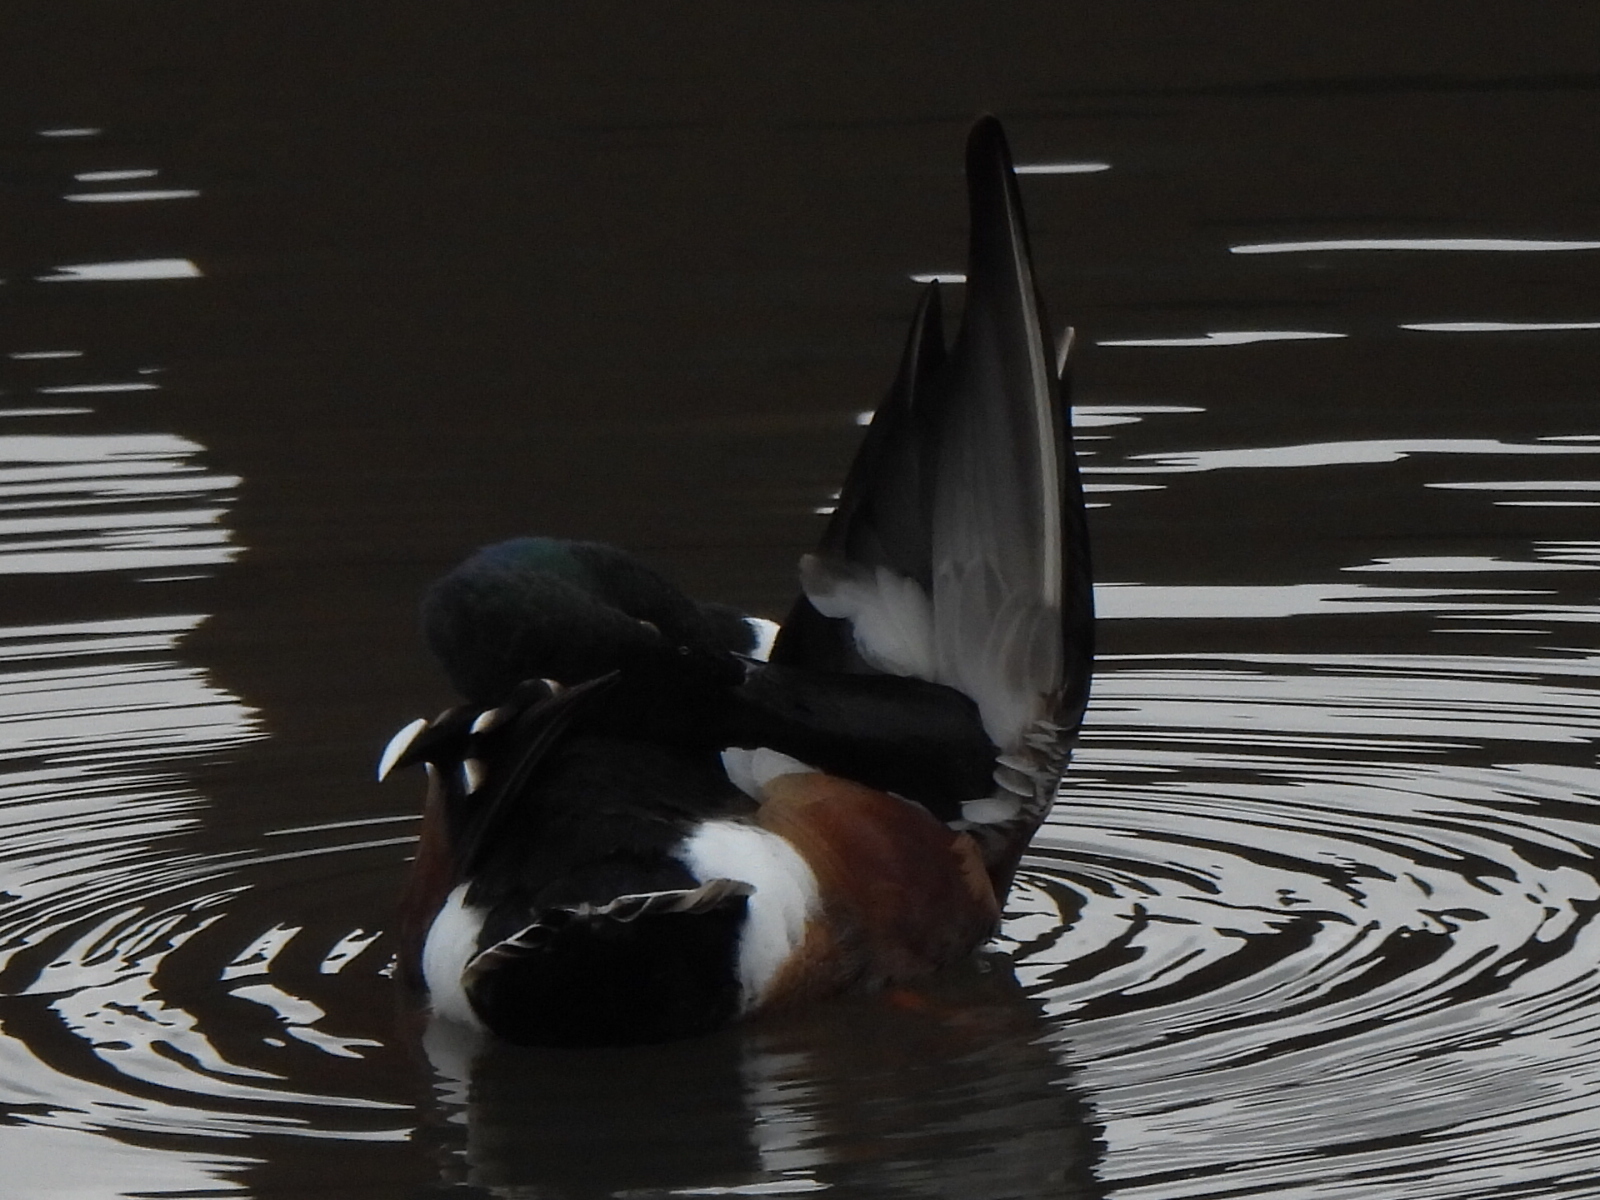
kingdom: Animalia
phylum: Chordata
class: Aves
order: Anseriformes
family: Anatidae
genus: Spatula
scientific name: Spatula clypeata
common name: Northern shoveler
